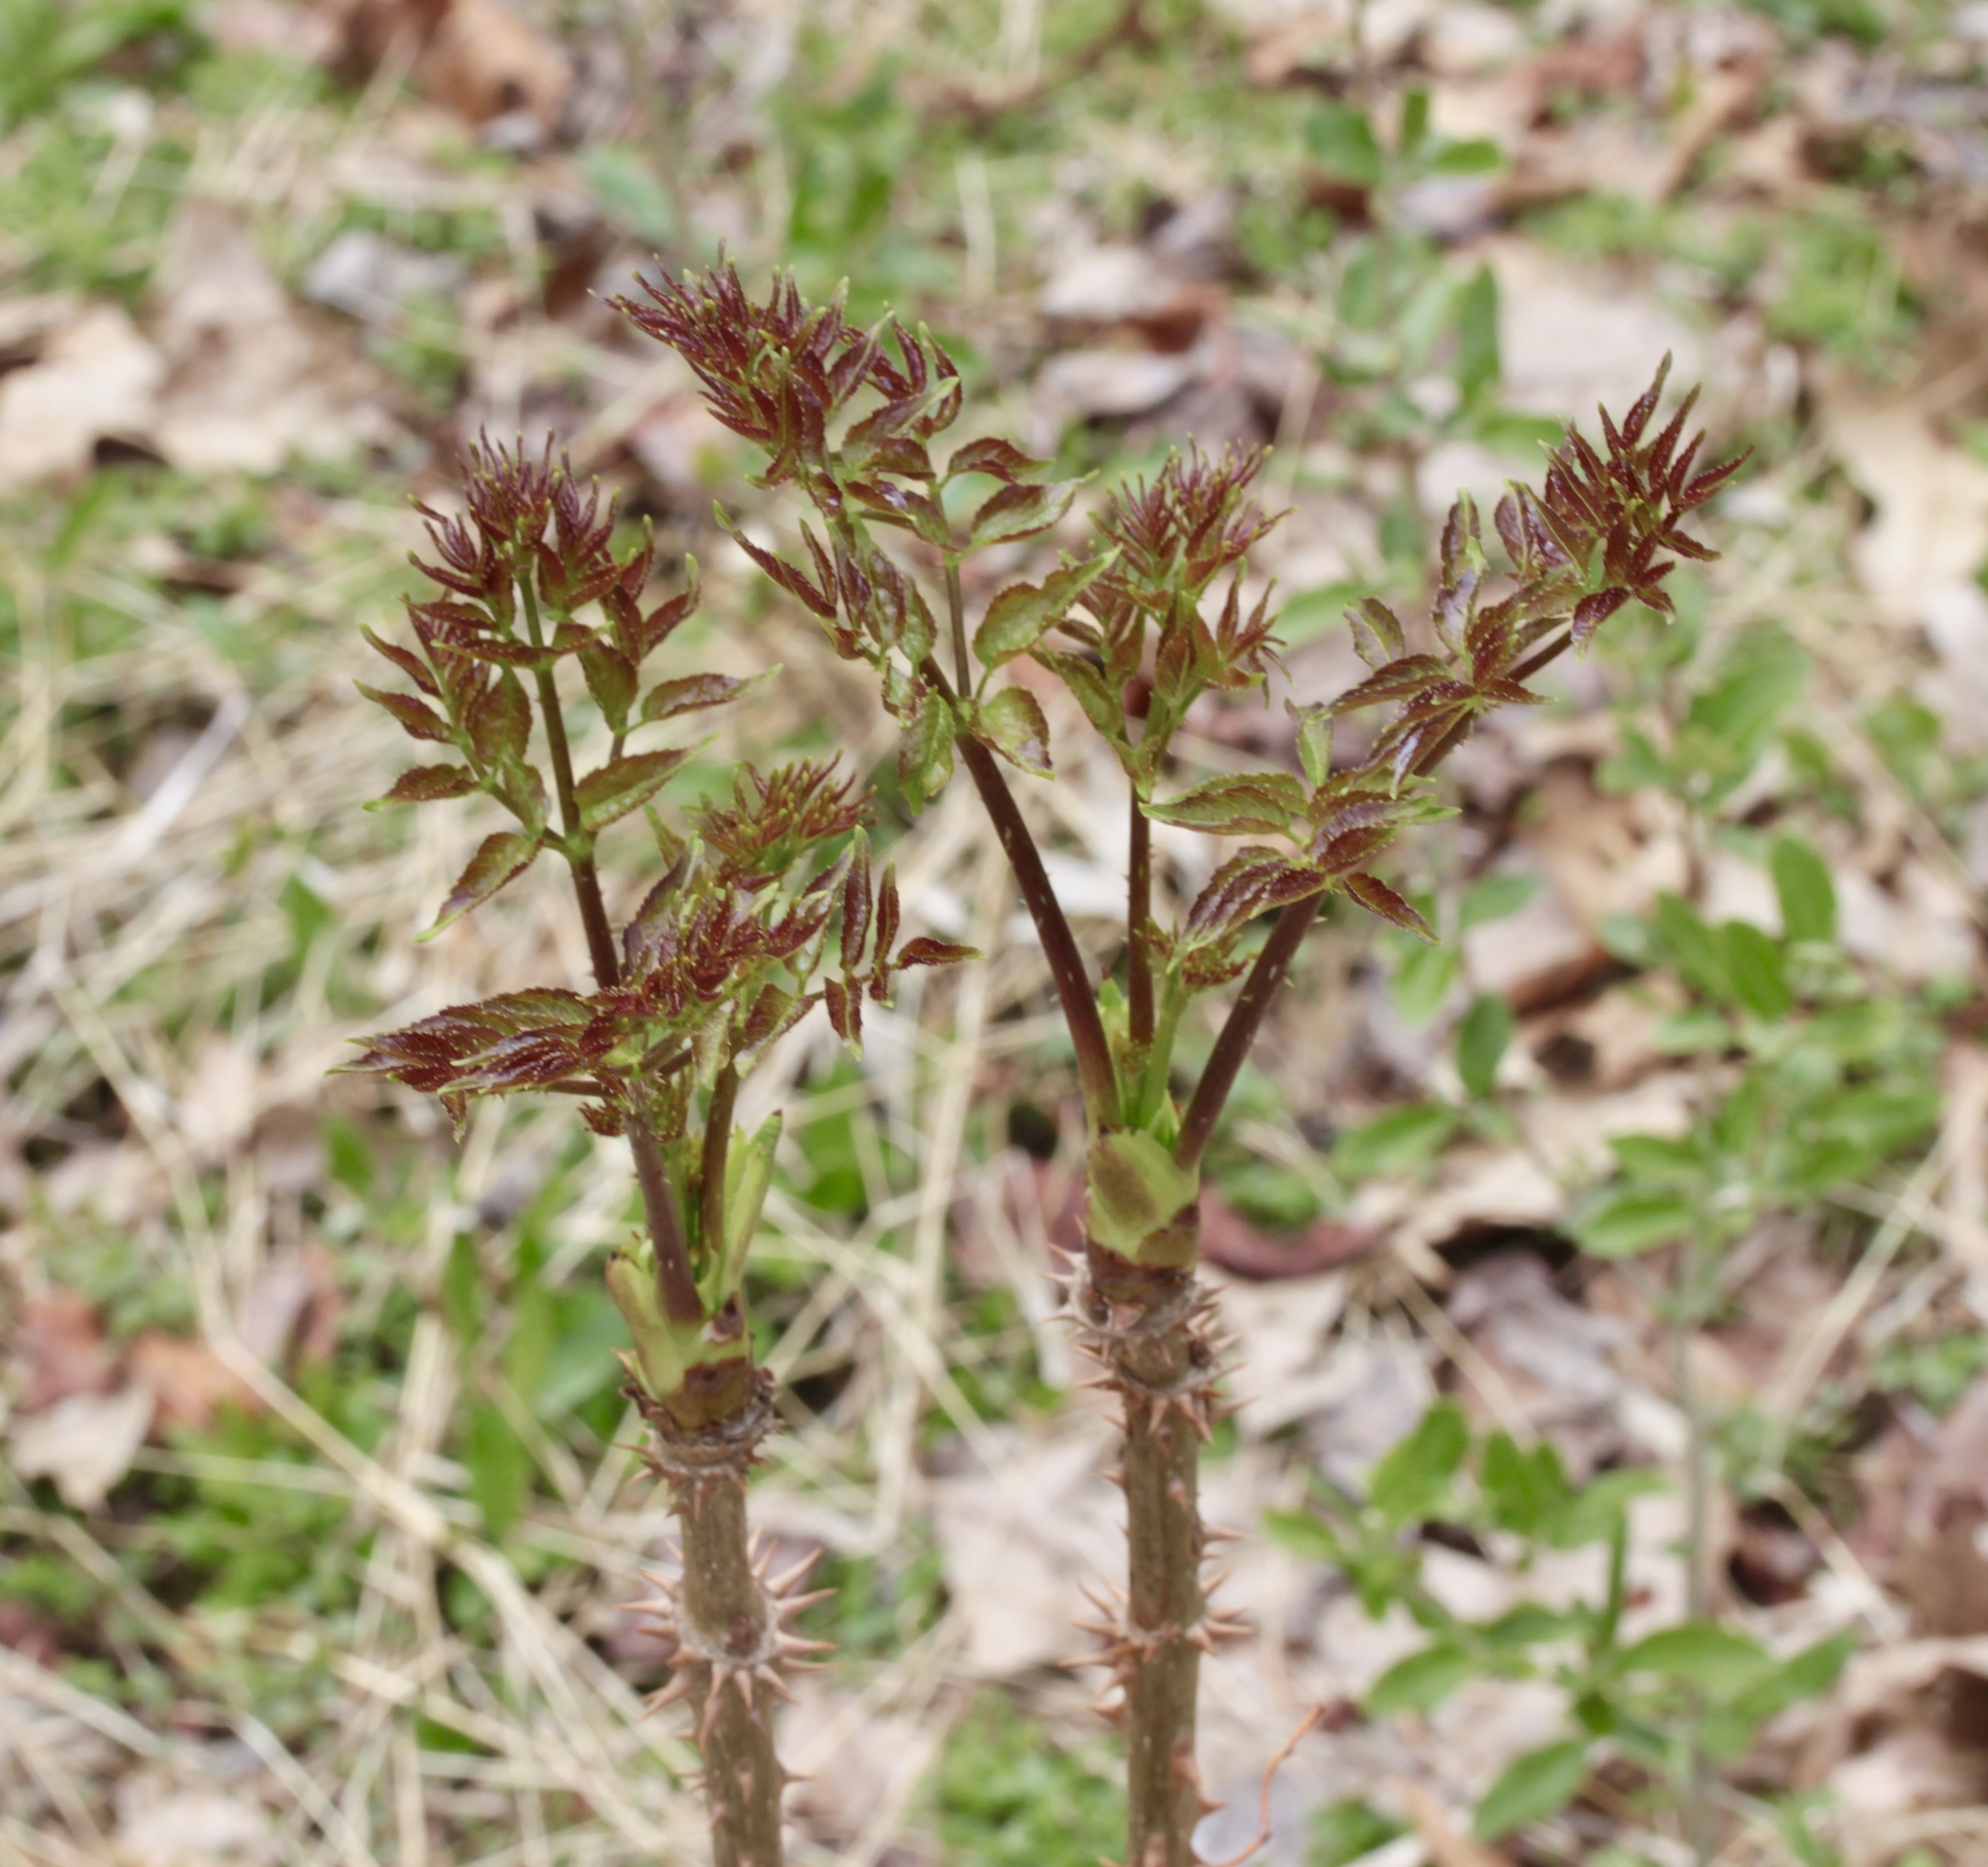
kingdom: Plantae
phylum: Tracheophyta
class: Magnoliopsida
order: Apiales
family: Araliaceae
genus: Aralia
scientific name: Aralia spinosa
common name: Hercules'-club
